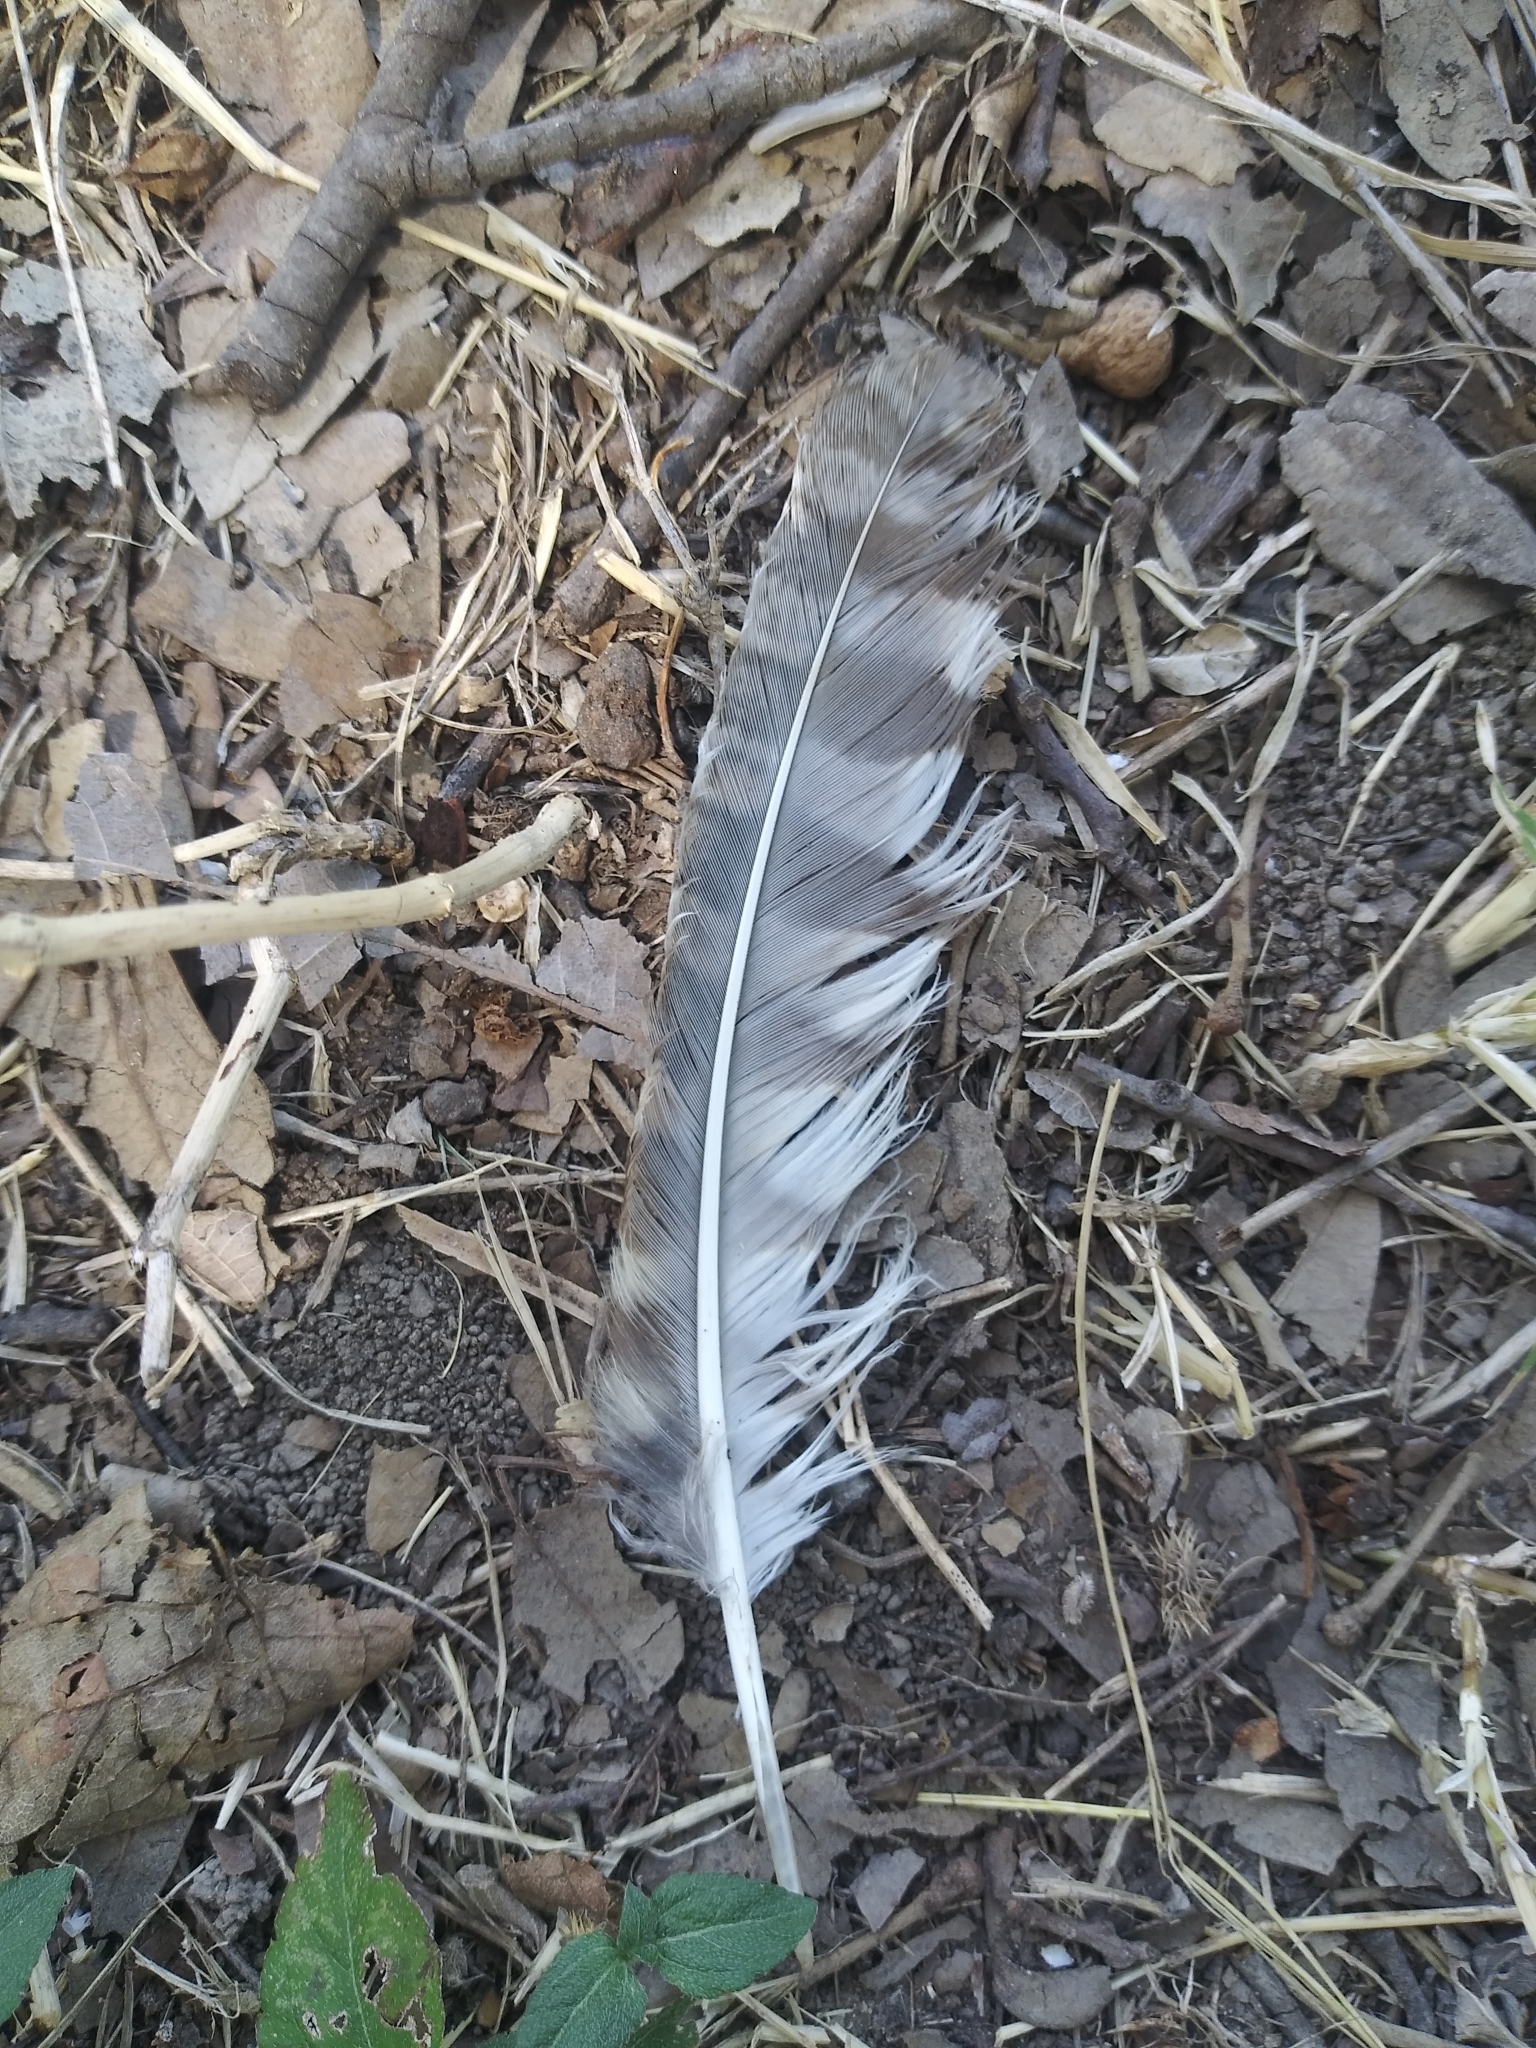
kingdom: Animalia
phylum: Chordata
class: Aves
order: Strigiformes
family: Strigidae
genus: Megascops
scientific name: Megascops asio
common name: Eastern screech-owl
